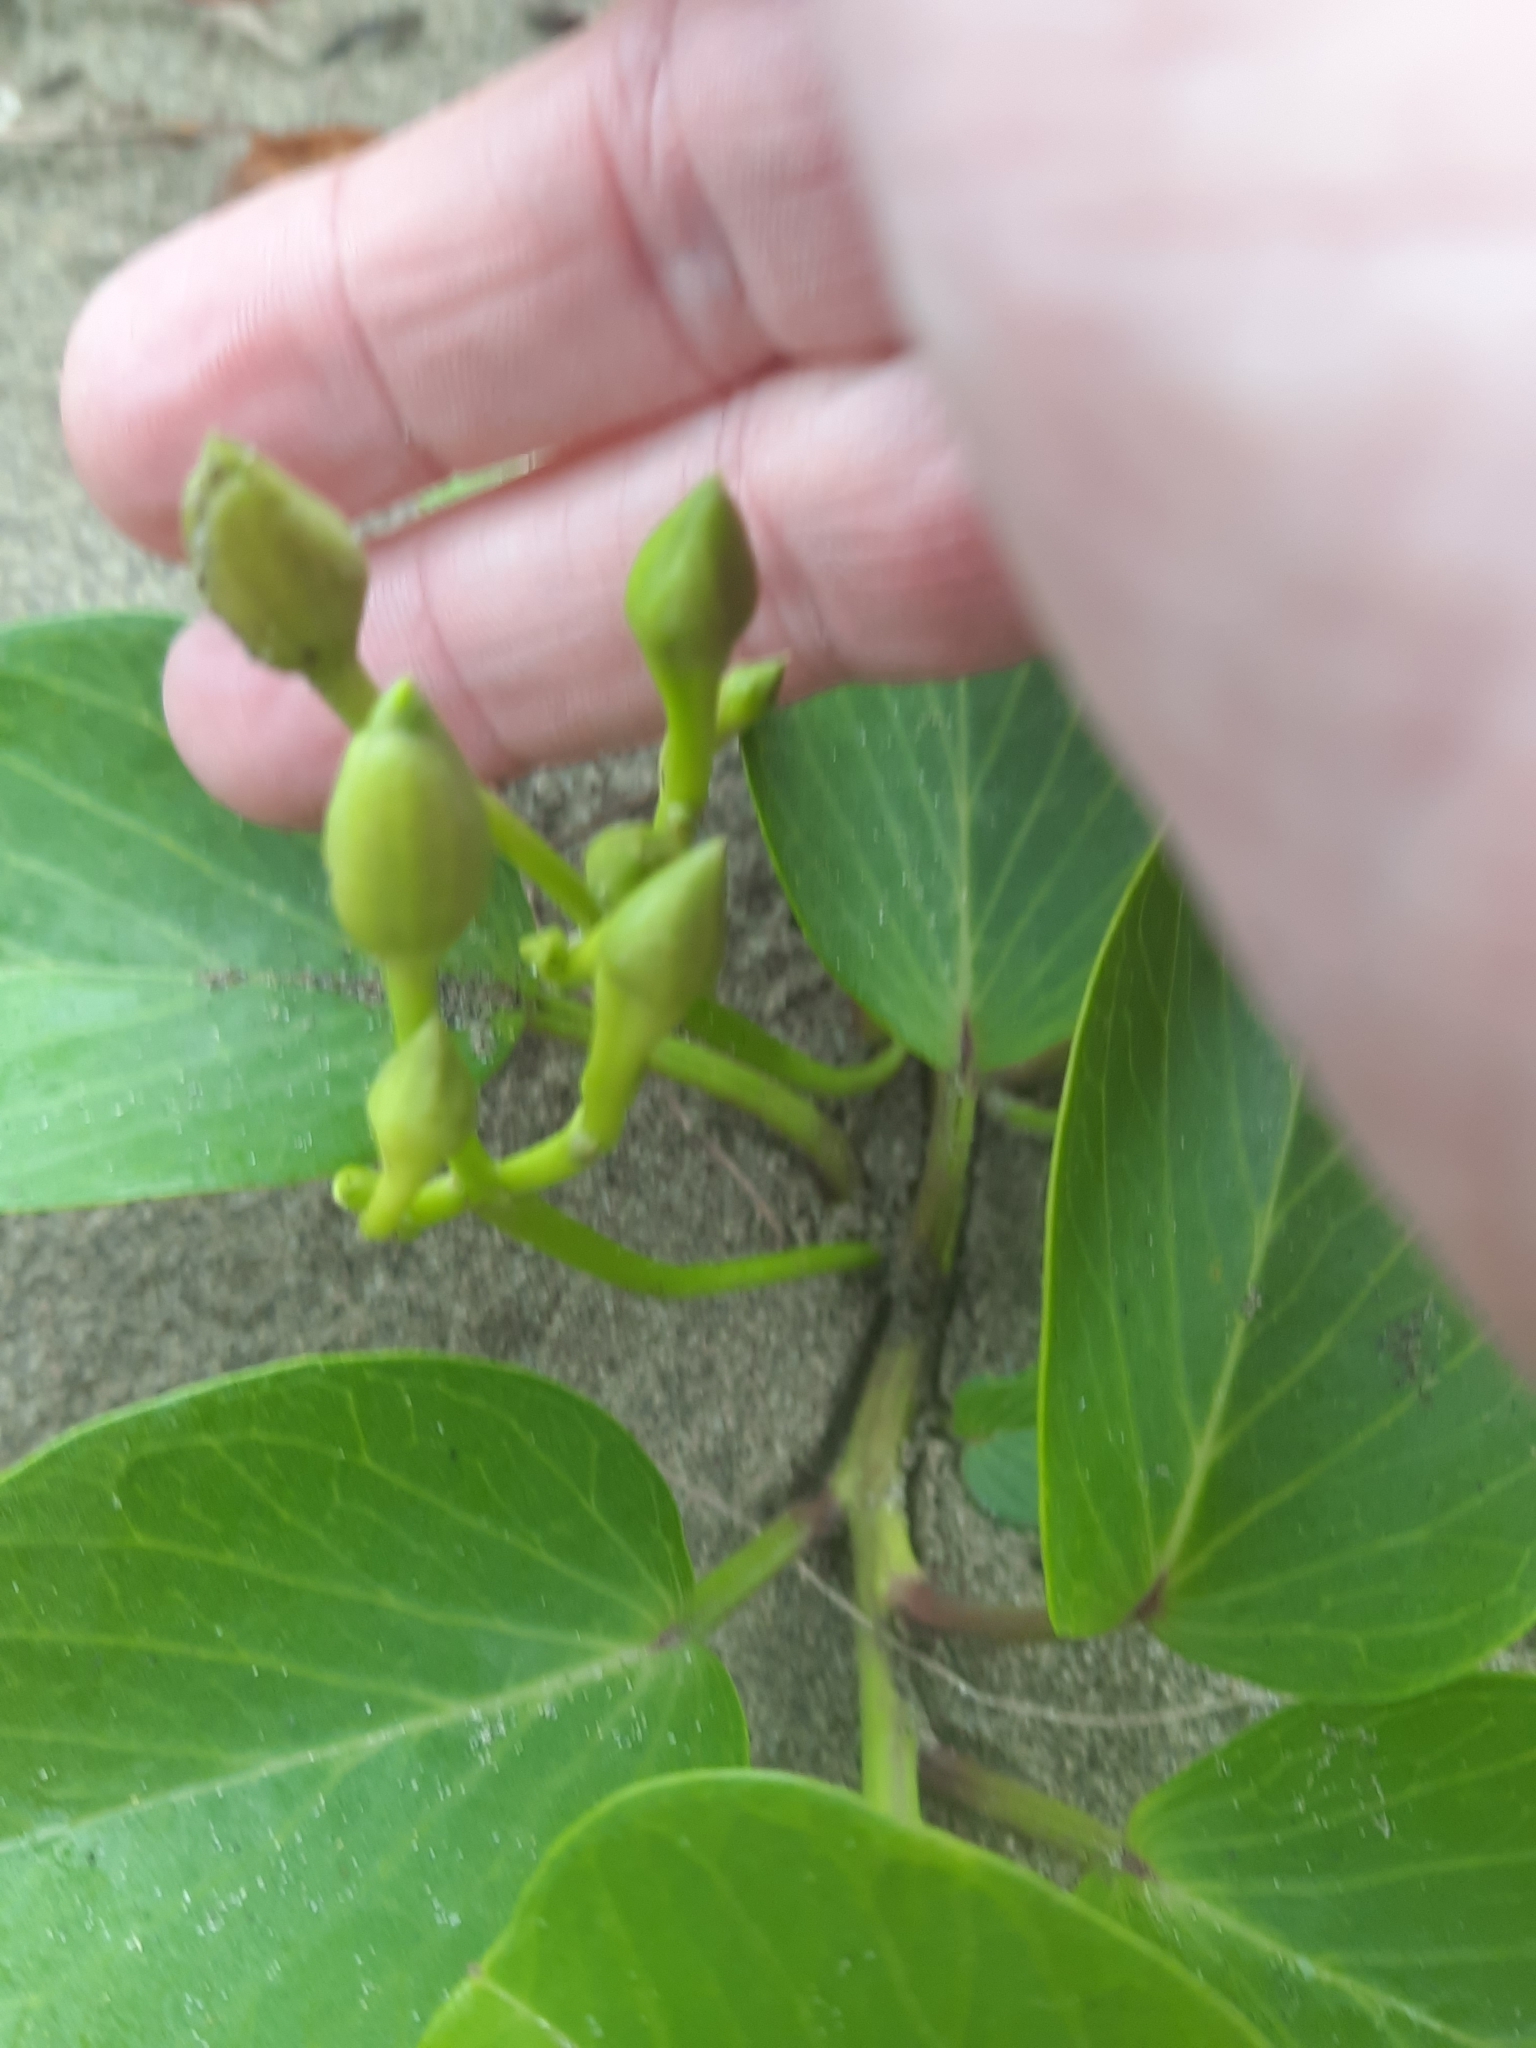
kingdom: Plantae
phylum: Tracheophyta
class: Magnoliopsida
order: Solanales
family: Convolvulaceae
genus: Ipomoea
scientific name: Ipomoea pes-caprae
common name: Beach morning glory
